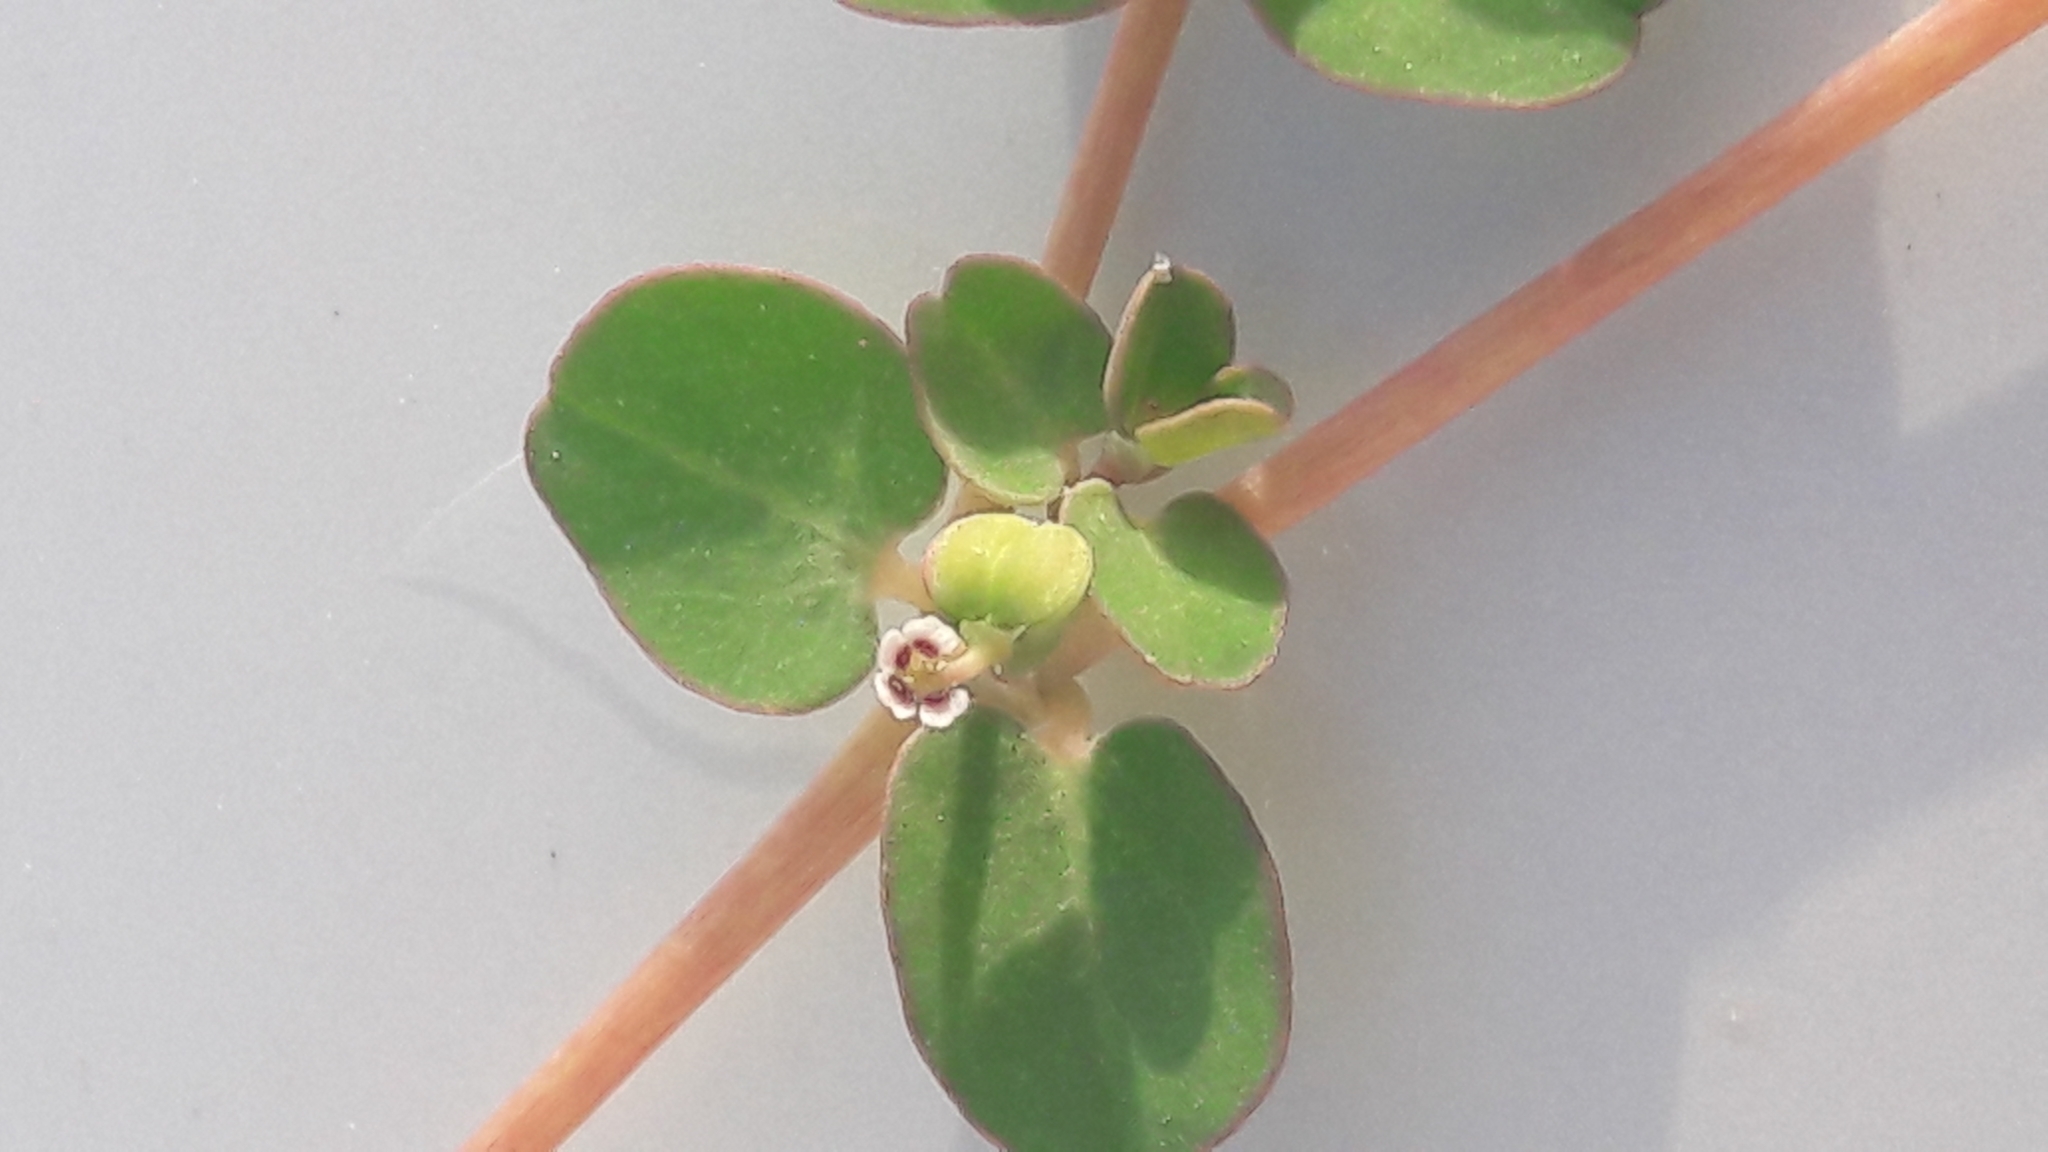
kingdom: Plantae
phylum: Tracheophyta
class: Magnoliopsida
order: Malpighiales
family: Euphorbiaceae
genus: Euphorbia
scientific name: Euphorbia serpens
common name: Matted sandmat
